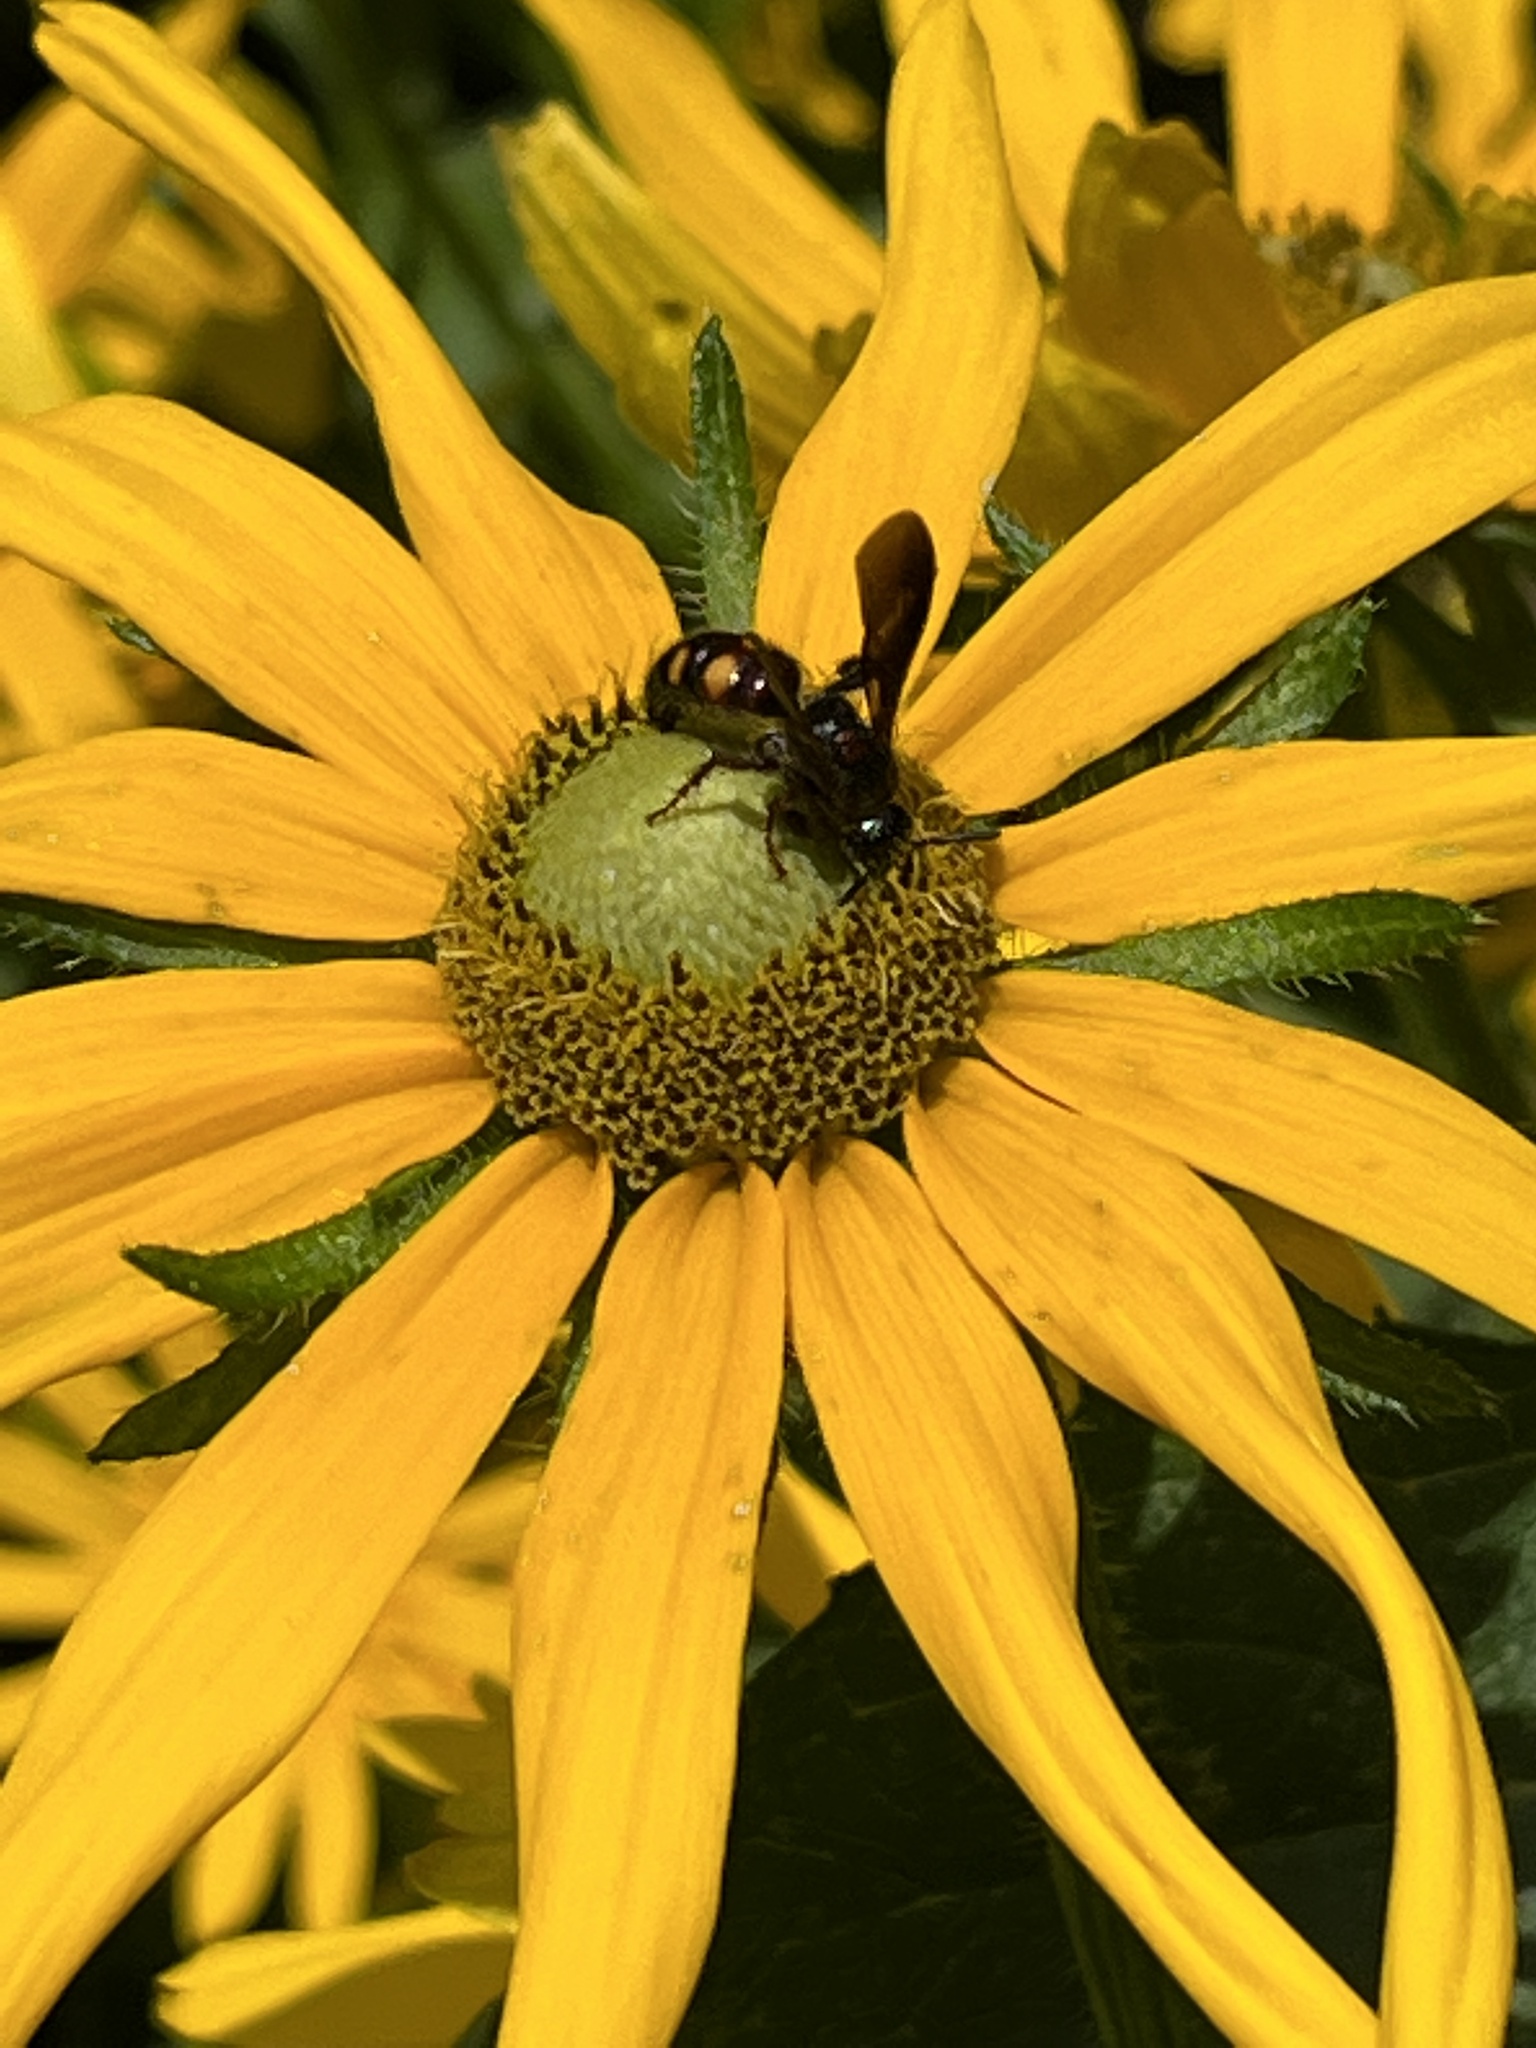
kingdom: Animalia
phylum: Arthropoda
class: Insecta
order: Hymenoptera
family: Scoliidae
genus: Scolia
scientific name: Scolia nobilitata
